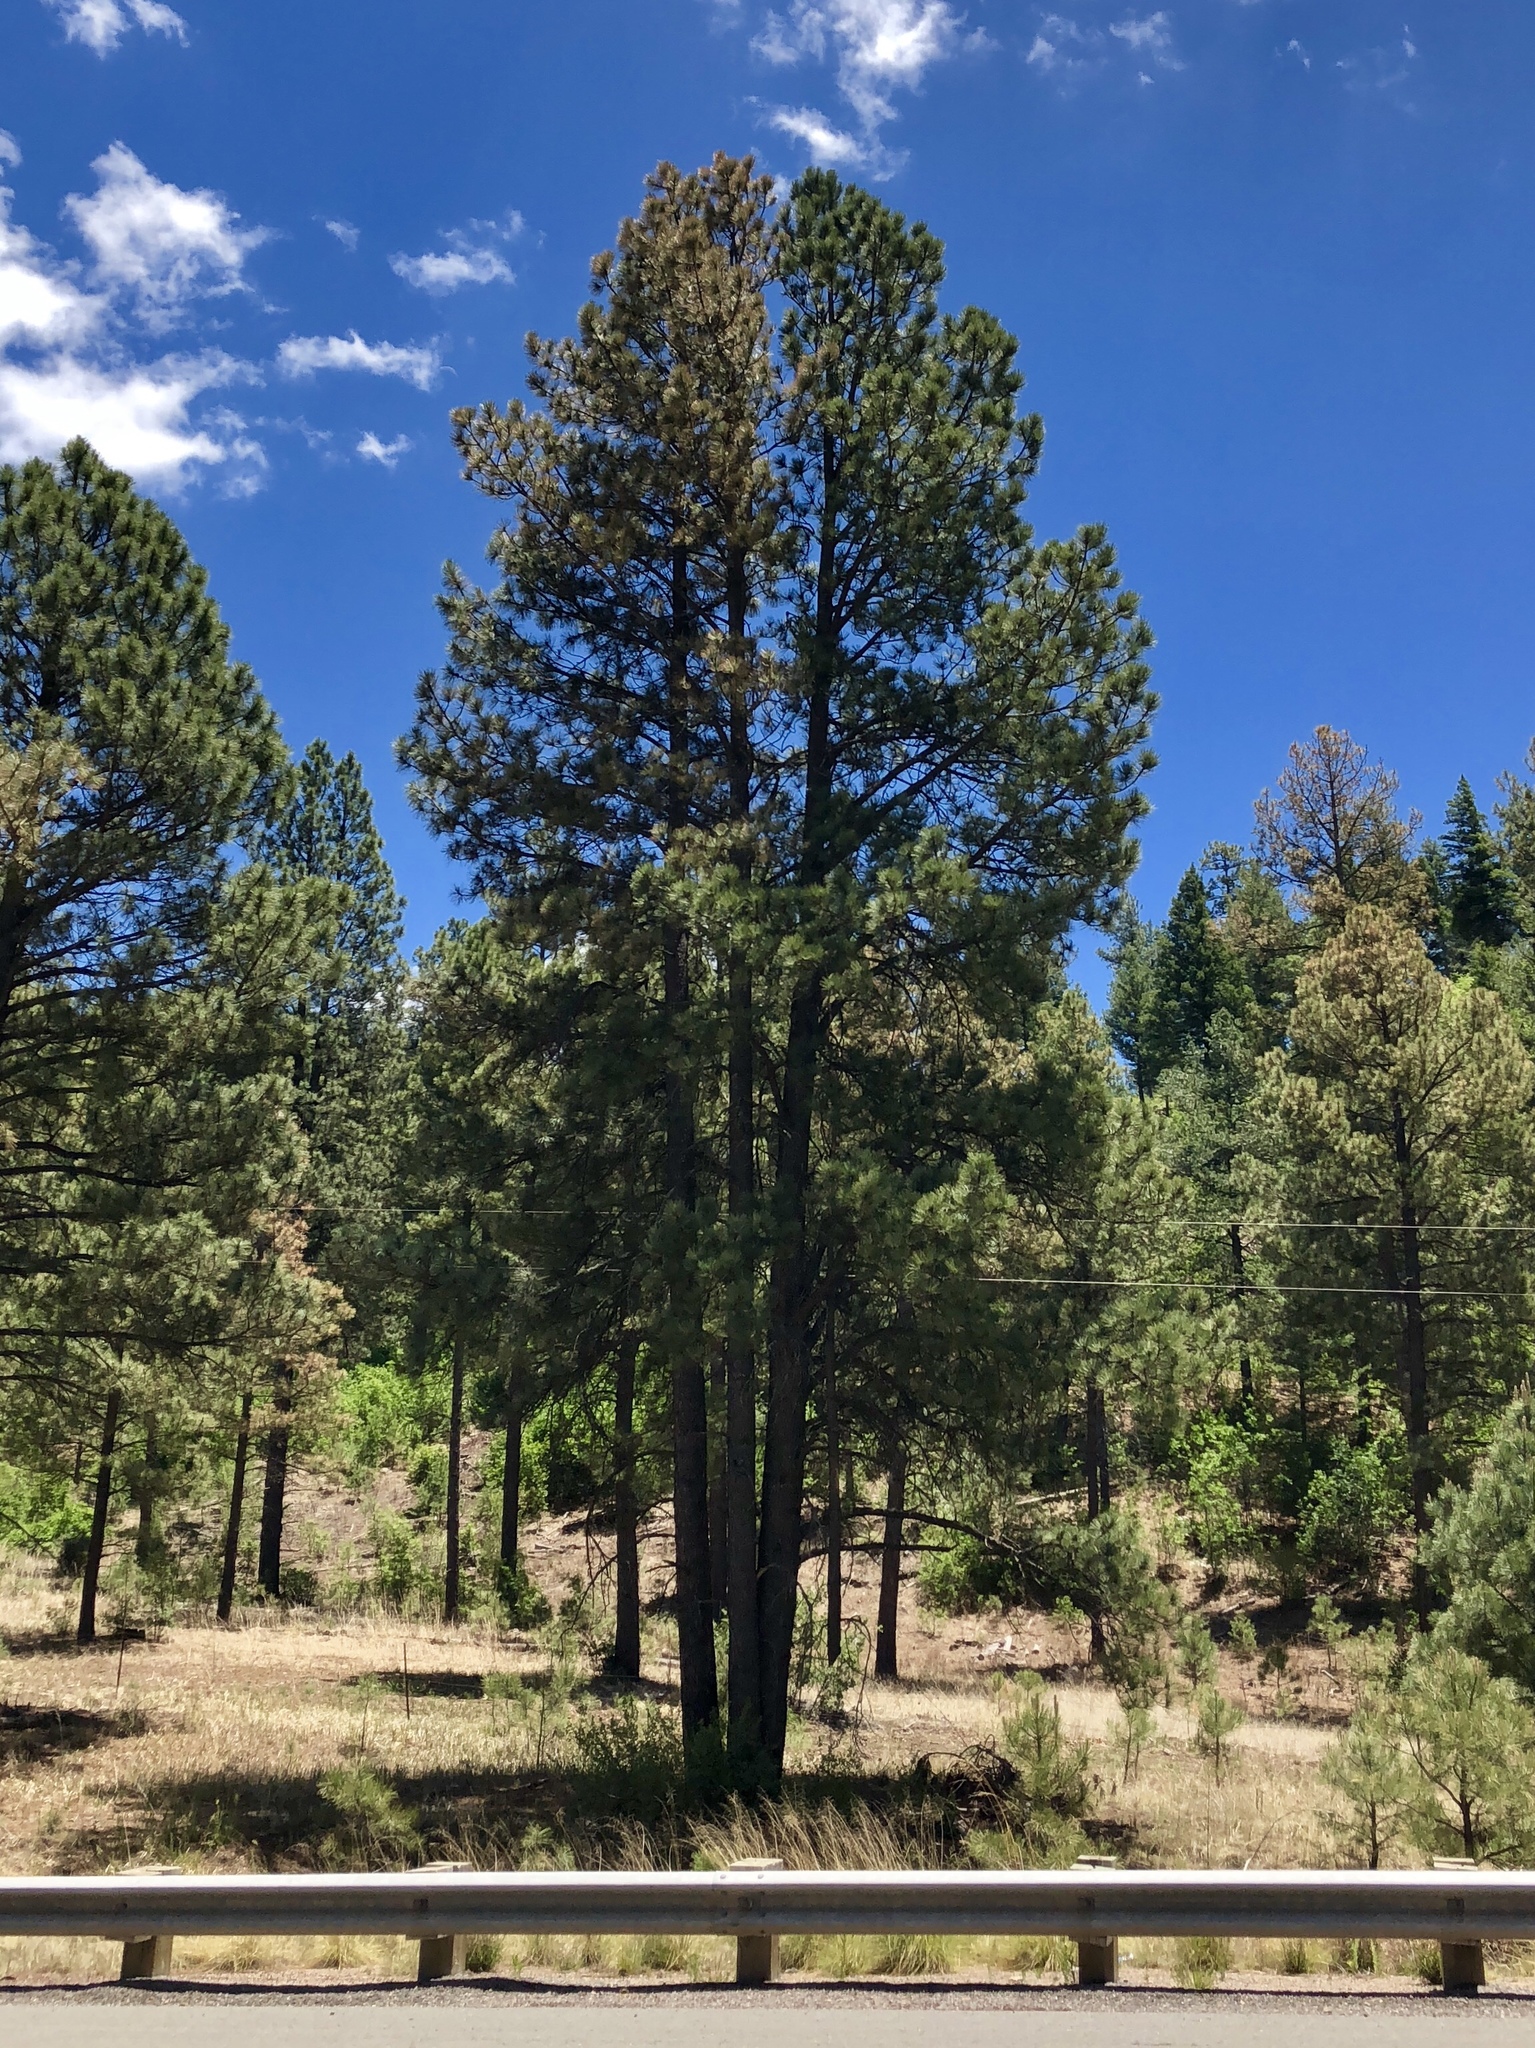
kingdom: Plantae
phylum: Tracheophyta
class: Pinopsida
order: Pinales
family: Pinaceae
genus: Pinus
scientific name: Pinus ponderosa
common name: Western yellow-pine
